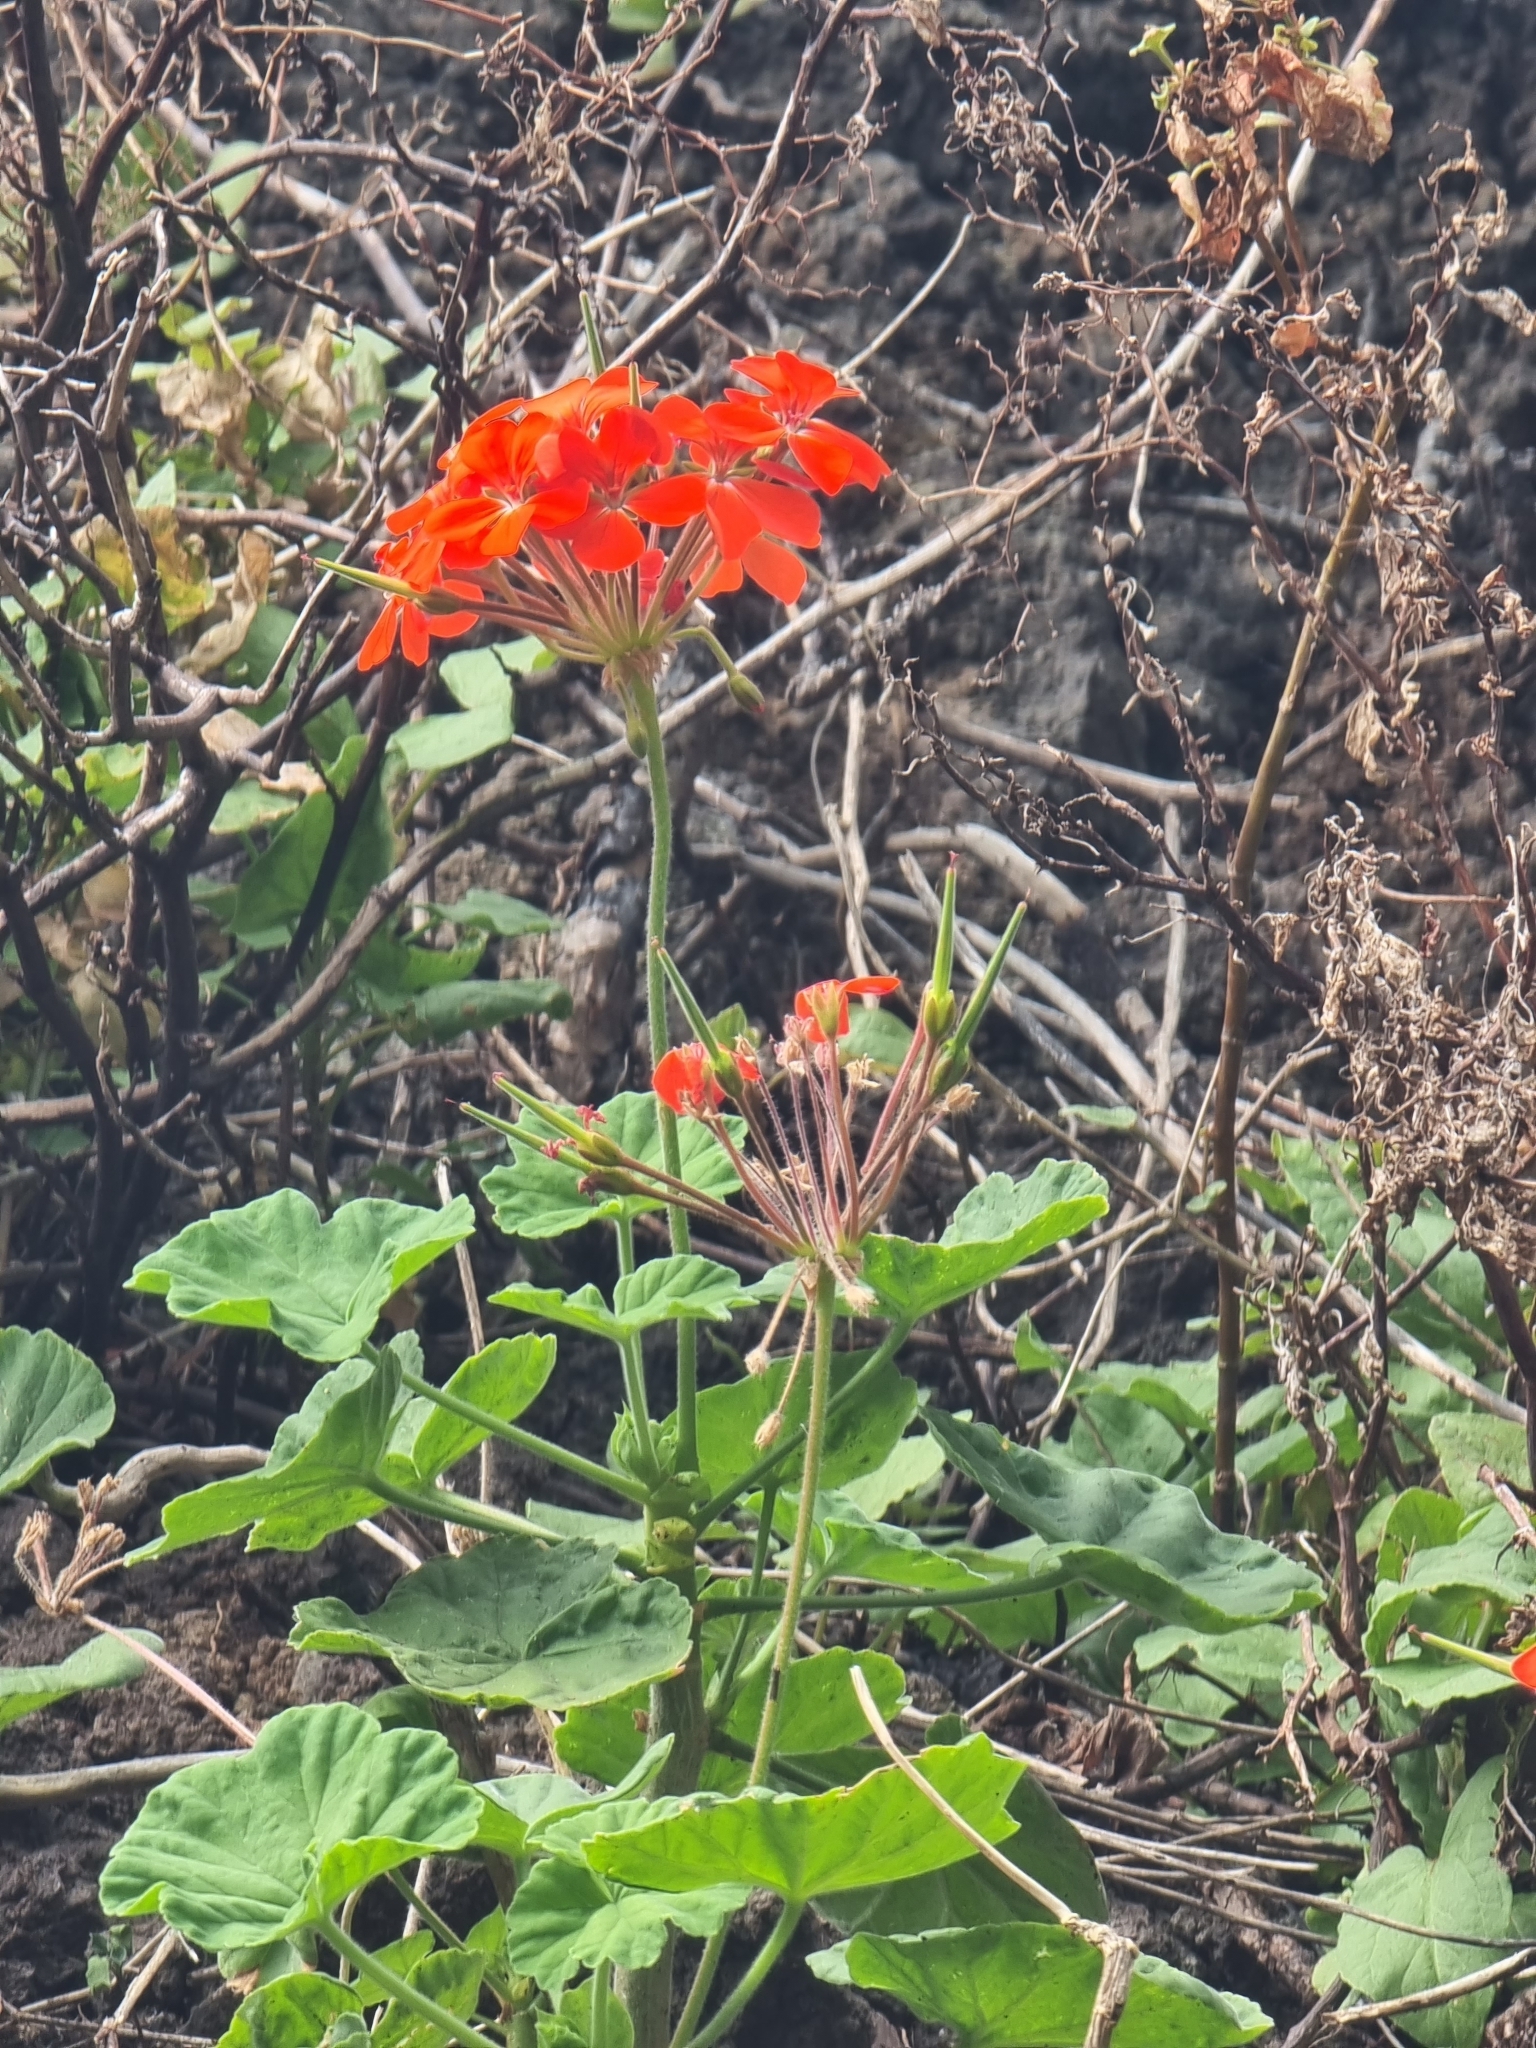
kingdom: Plantae
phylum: Tracheophyta
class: Magnoliopsida
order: Geraniales
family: Geraniaceae
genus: Pelargonium
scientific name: Pelargonium hybridum
